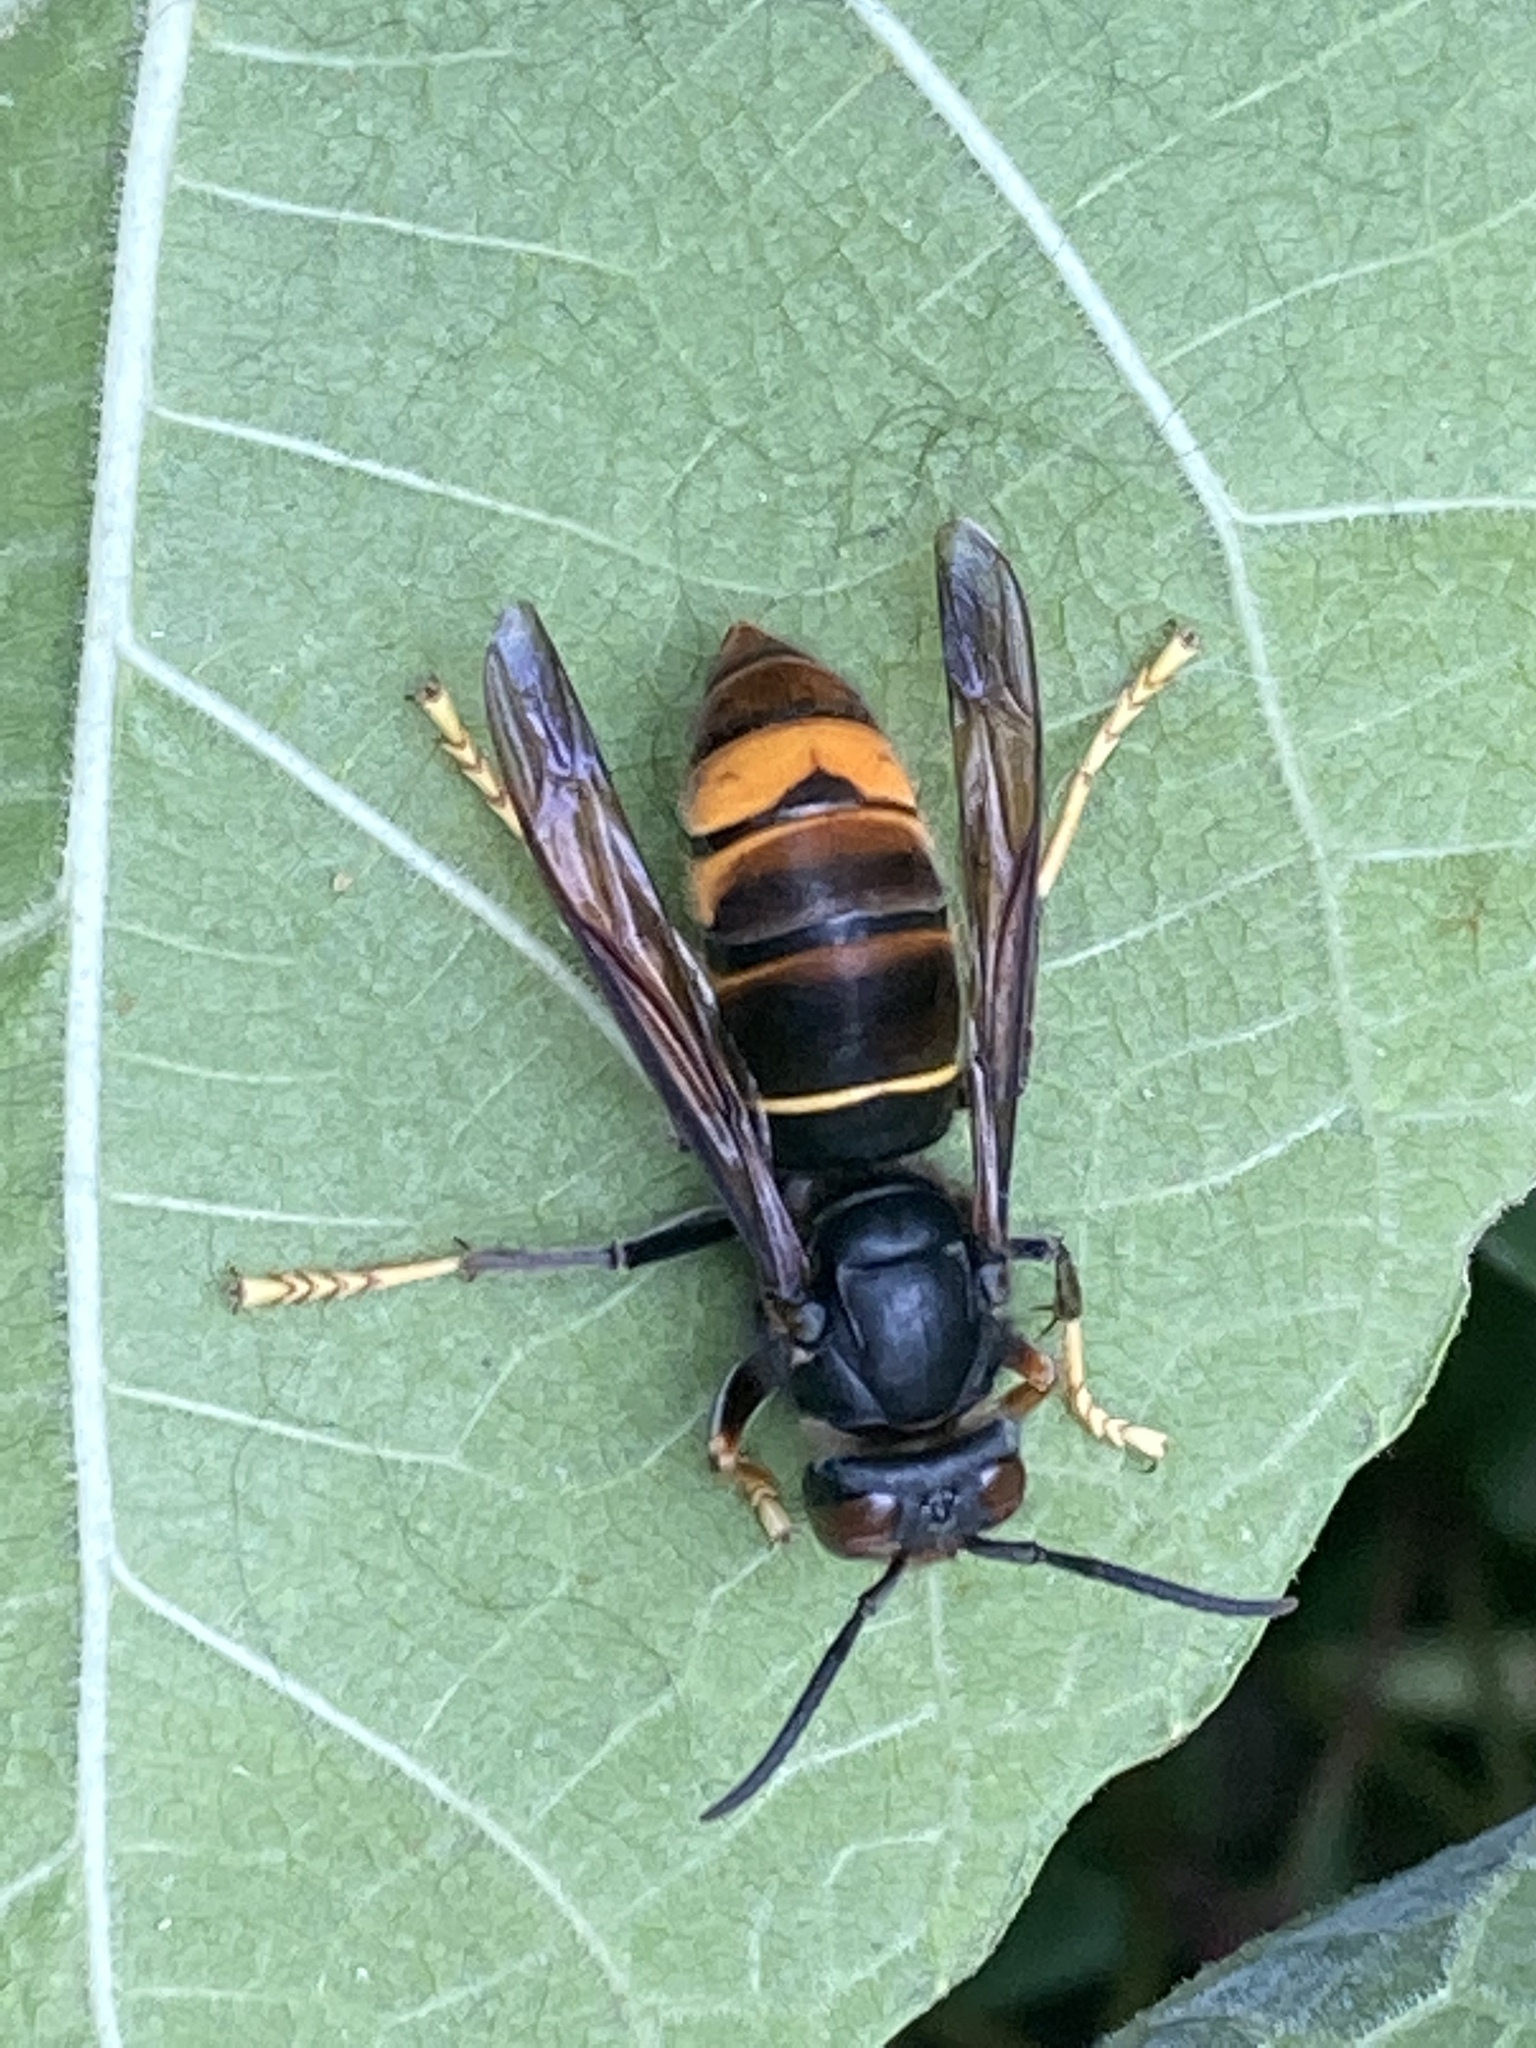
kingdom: Animalia
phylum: Arthropoda
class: Insecta
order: Hymenoptera
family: Vespidae
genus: Vespa
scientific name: Vespa velutina
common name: Asian hornet
